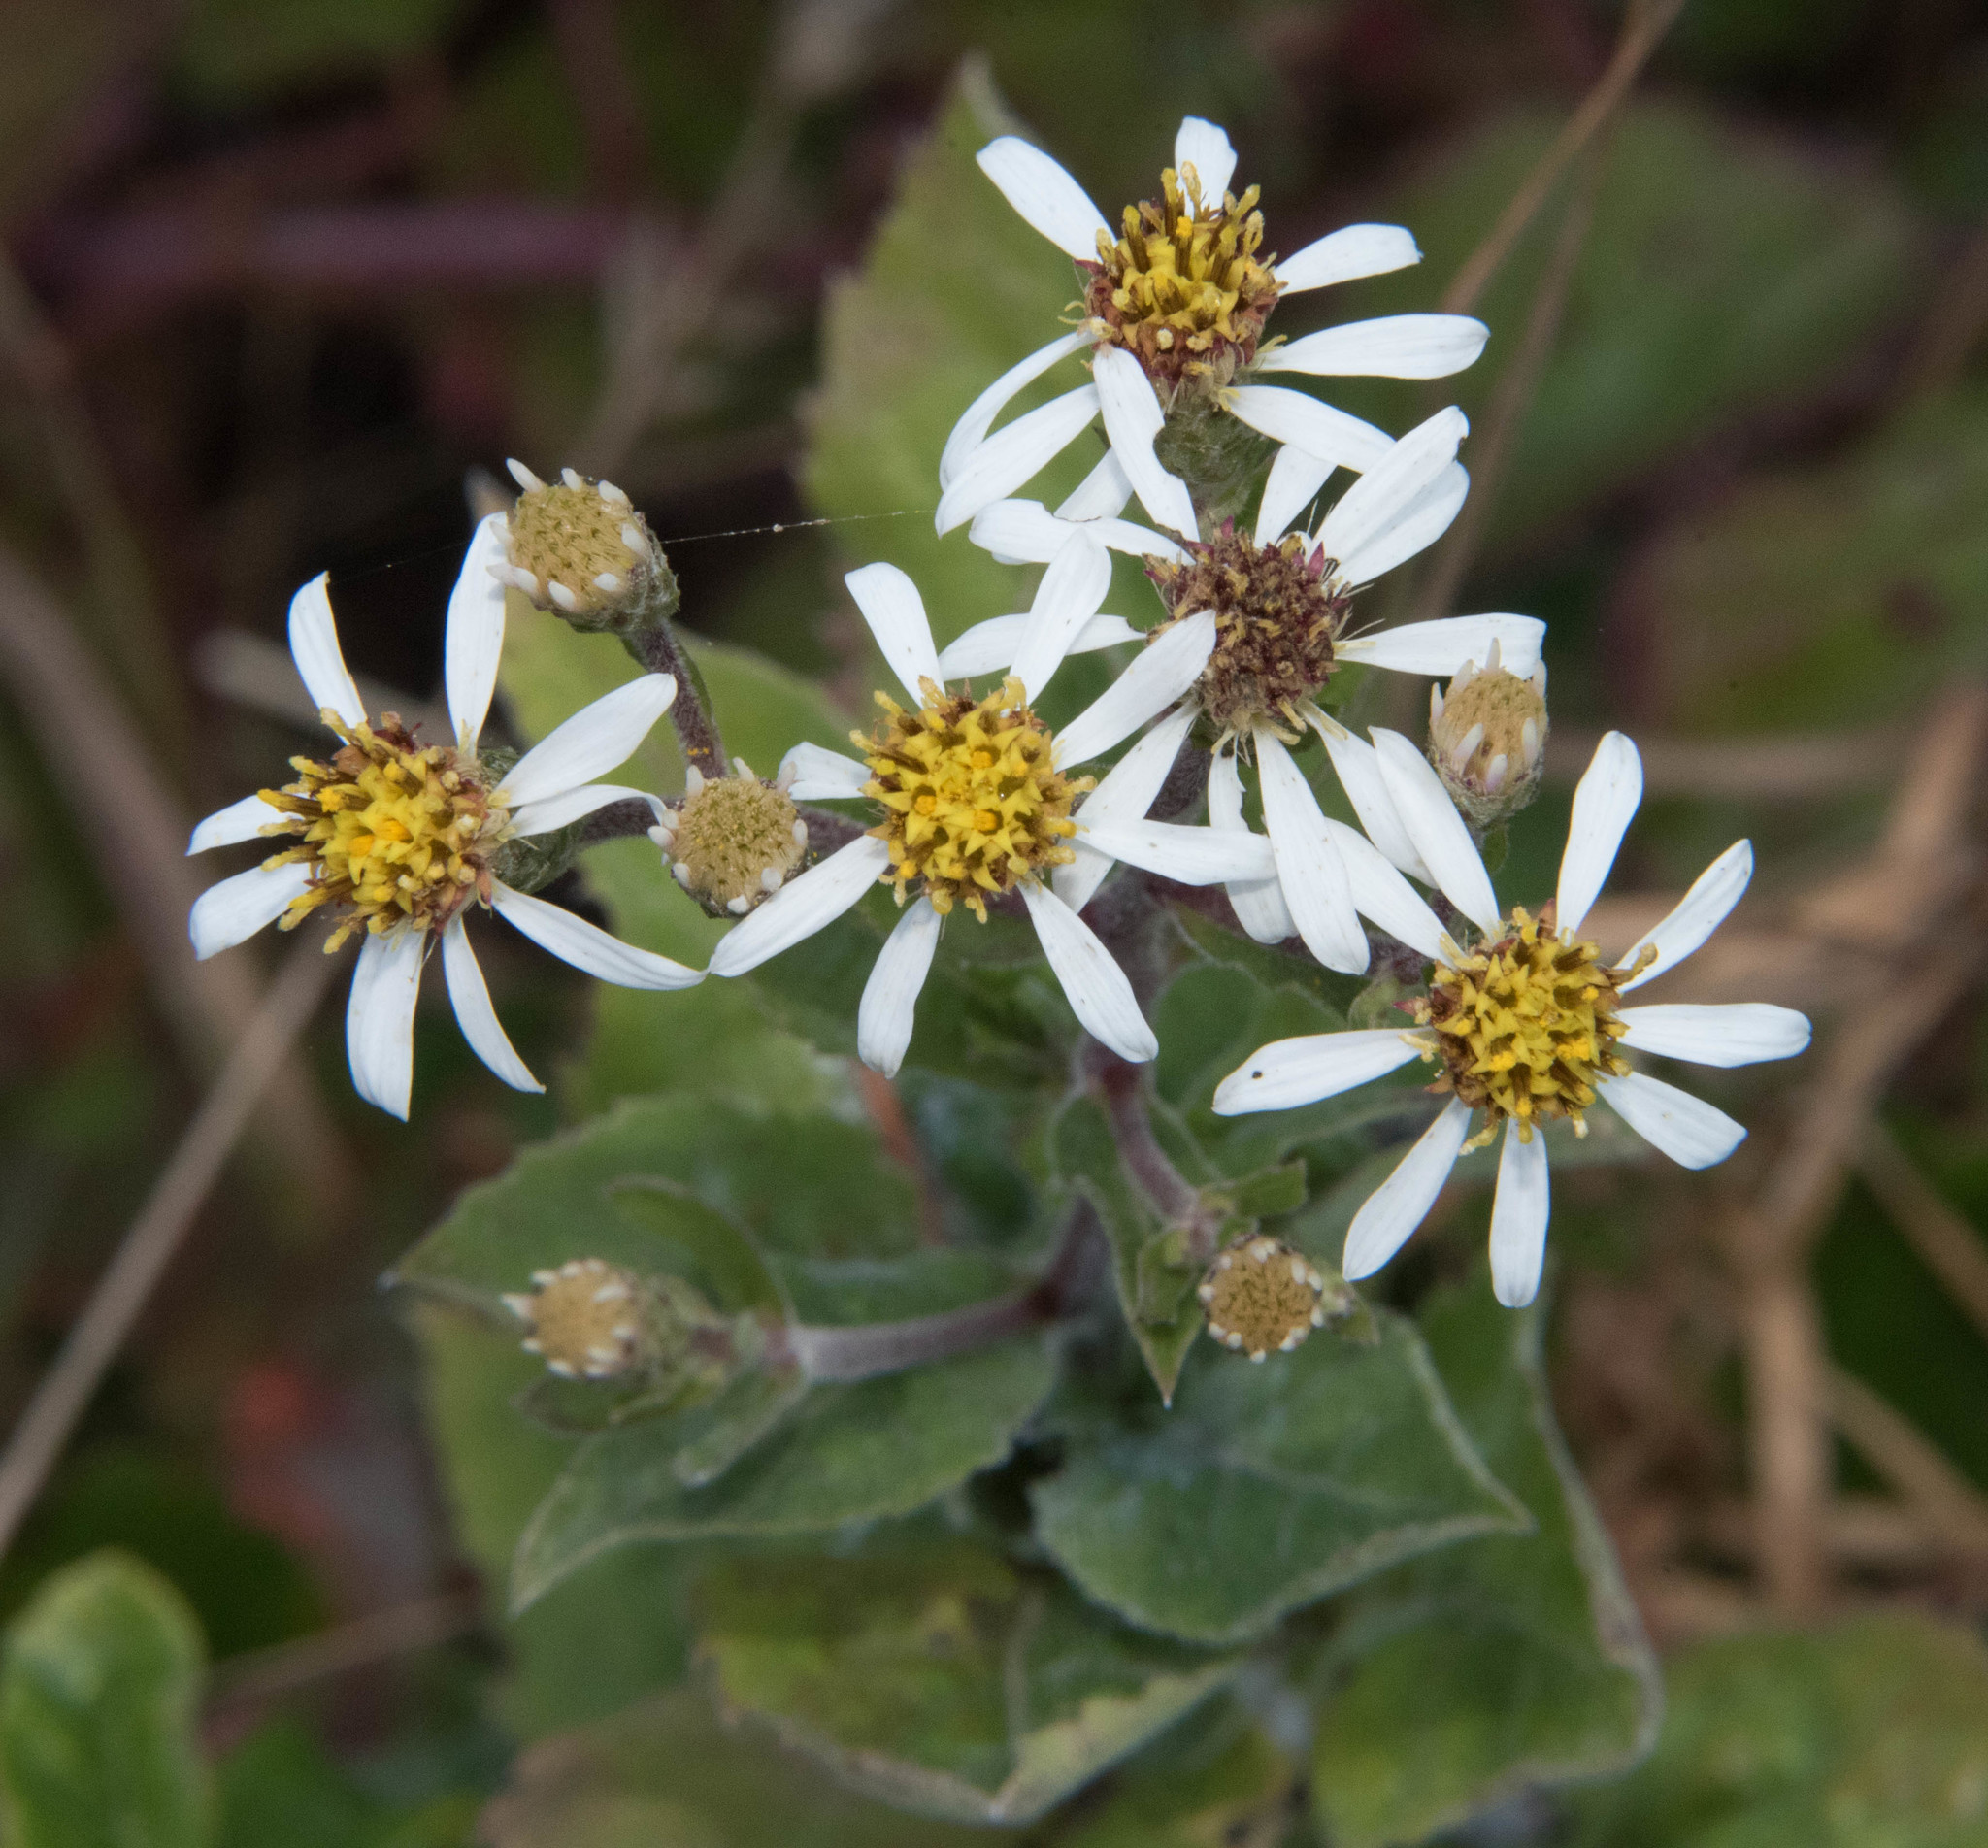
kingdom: Plantae
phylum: Tracheophyta
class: Magnoliopsida
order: Asterales
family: Asteraceae
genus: Eurybia
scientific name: Eurybia radulina
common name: Rough-leaved aster
